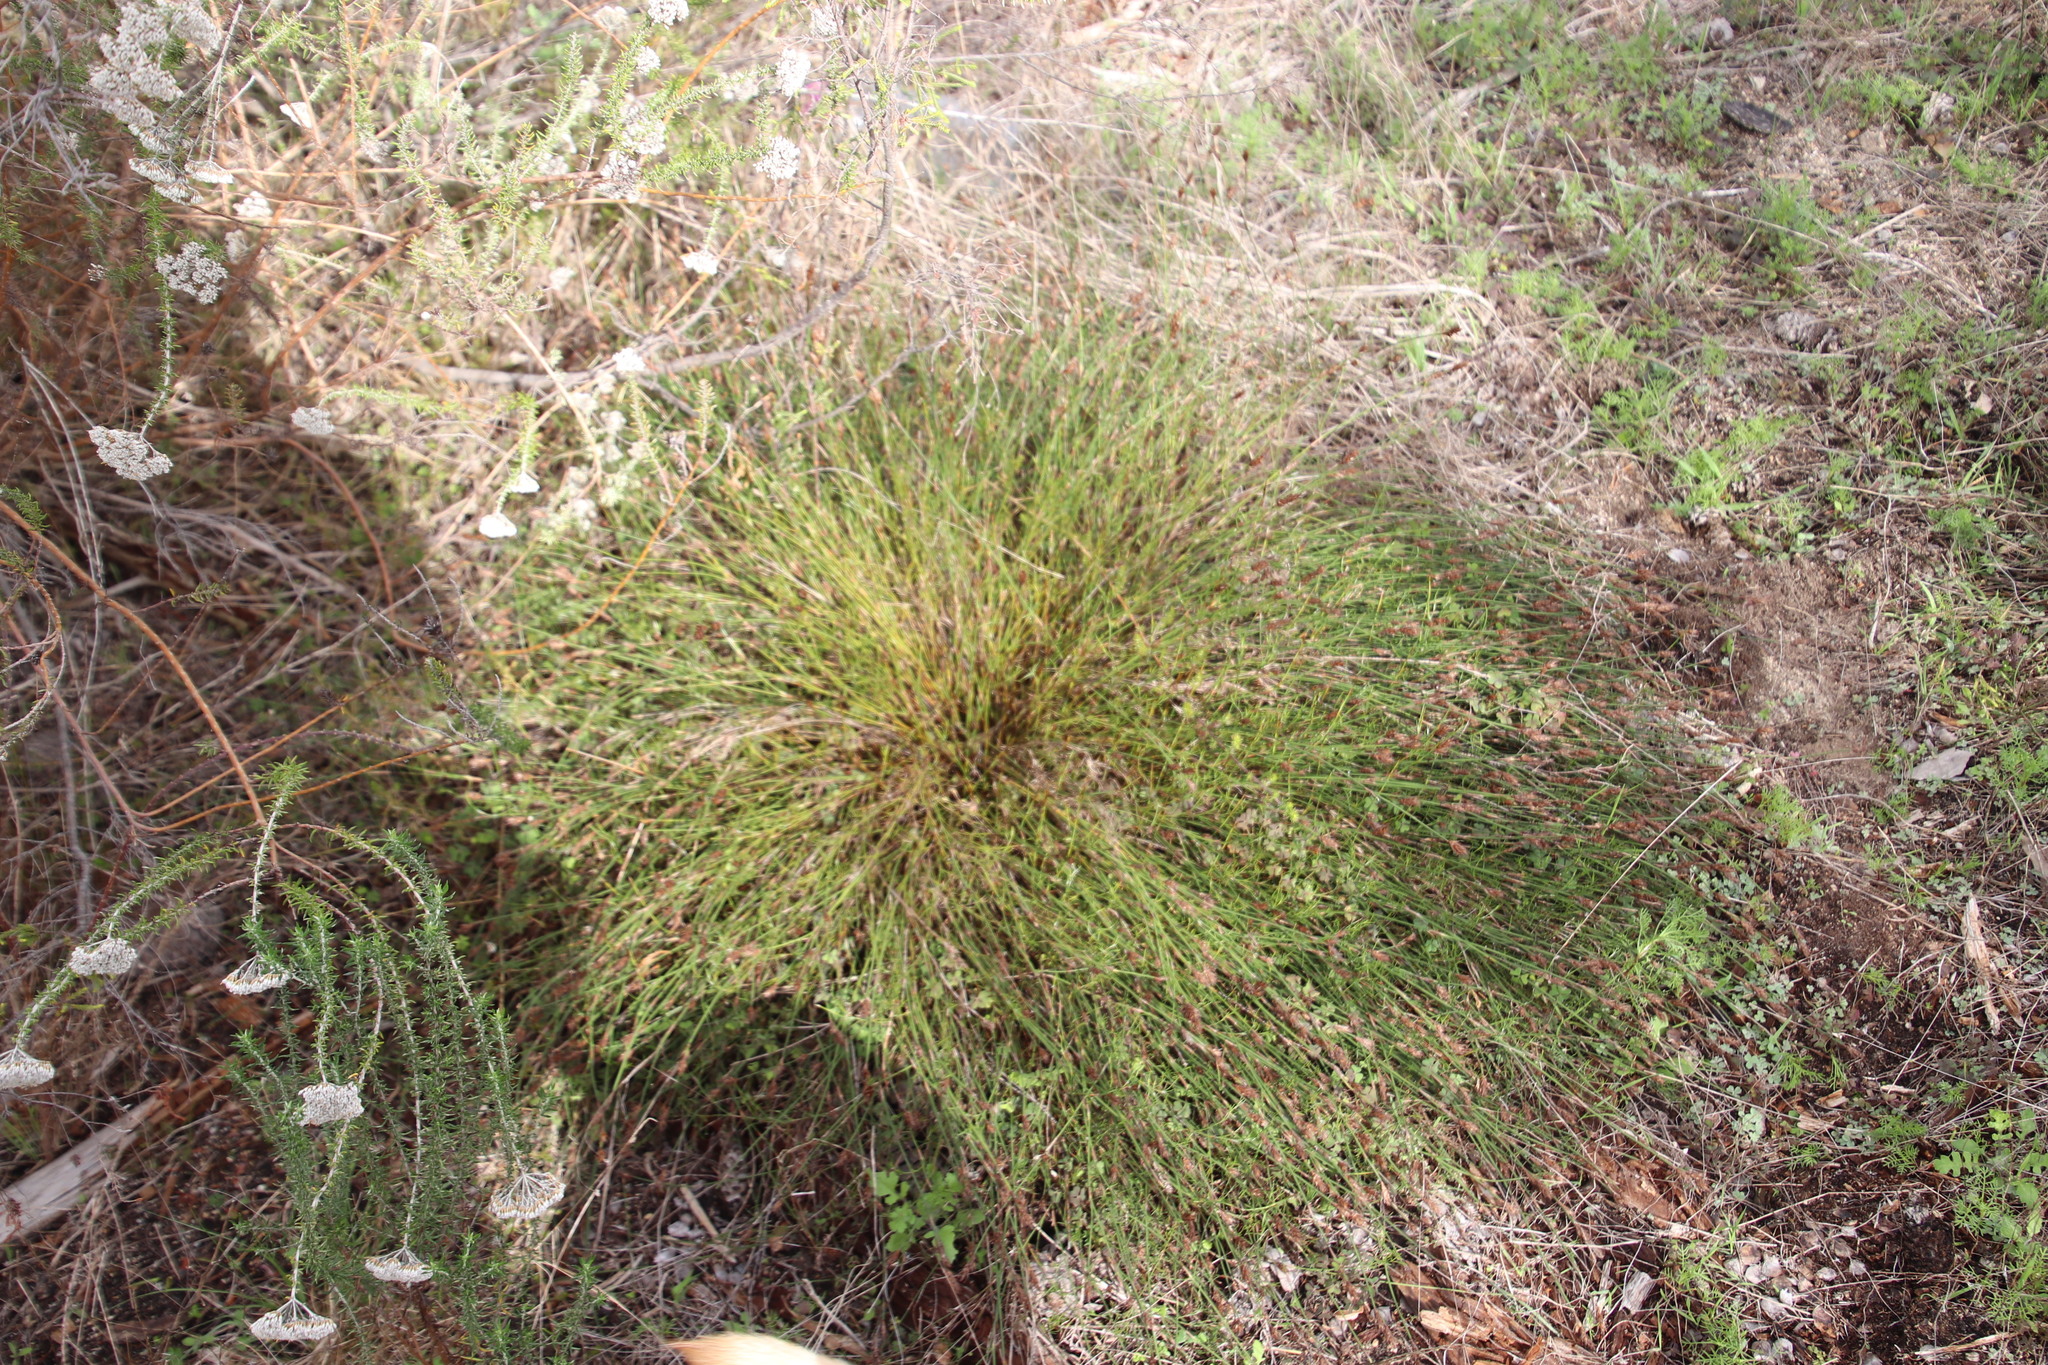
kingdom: Plantae
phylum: Tracheophyta
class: Liliopsida
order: Poales
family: Restionaceae
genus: Restio
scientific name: Restio capensis
